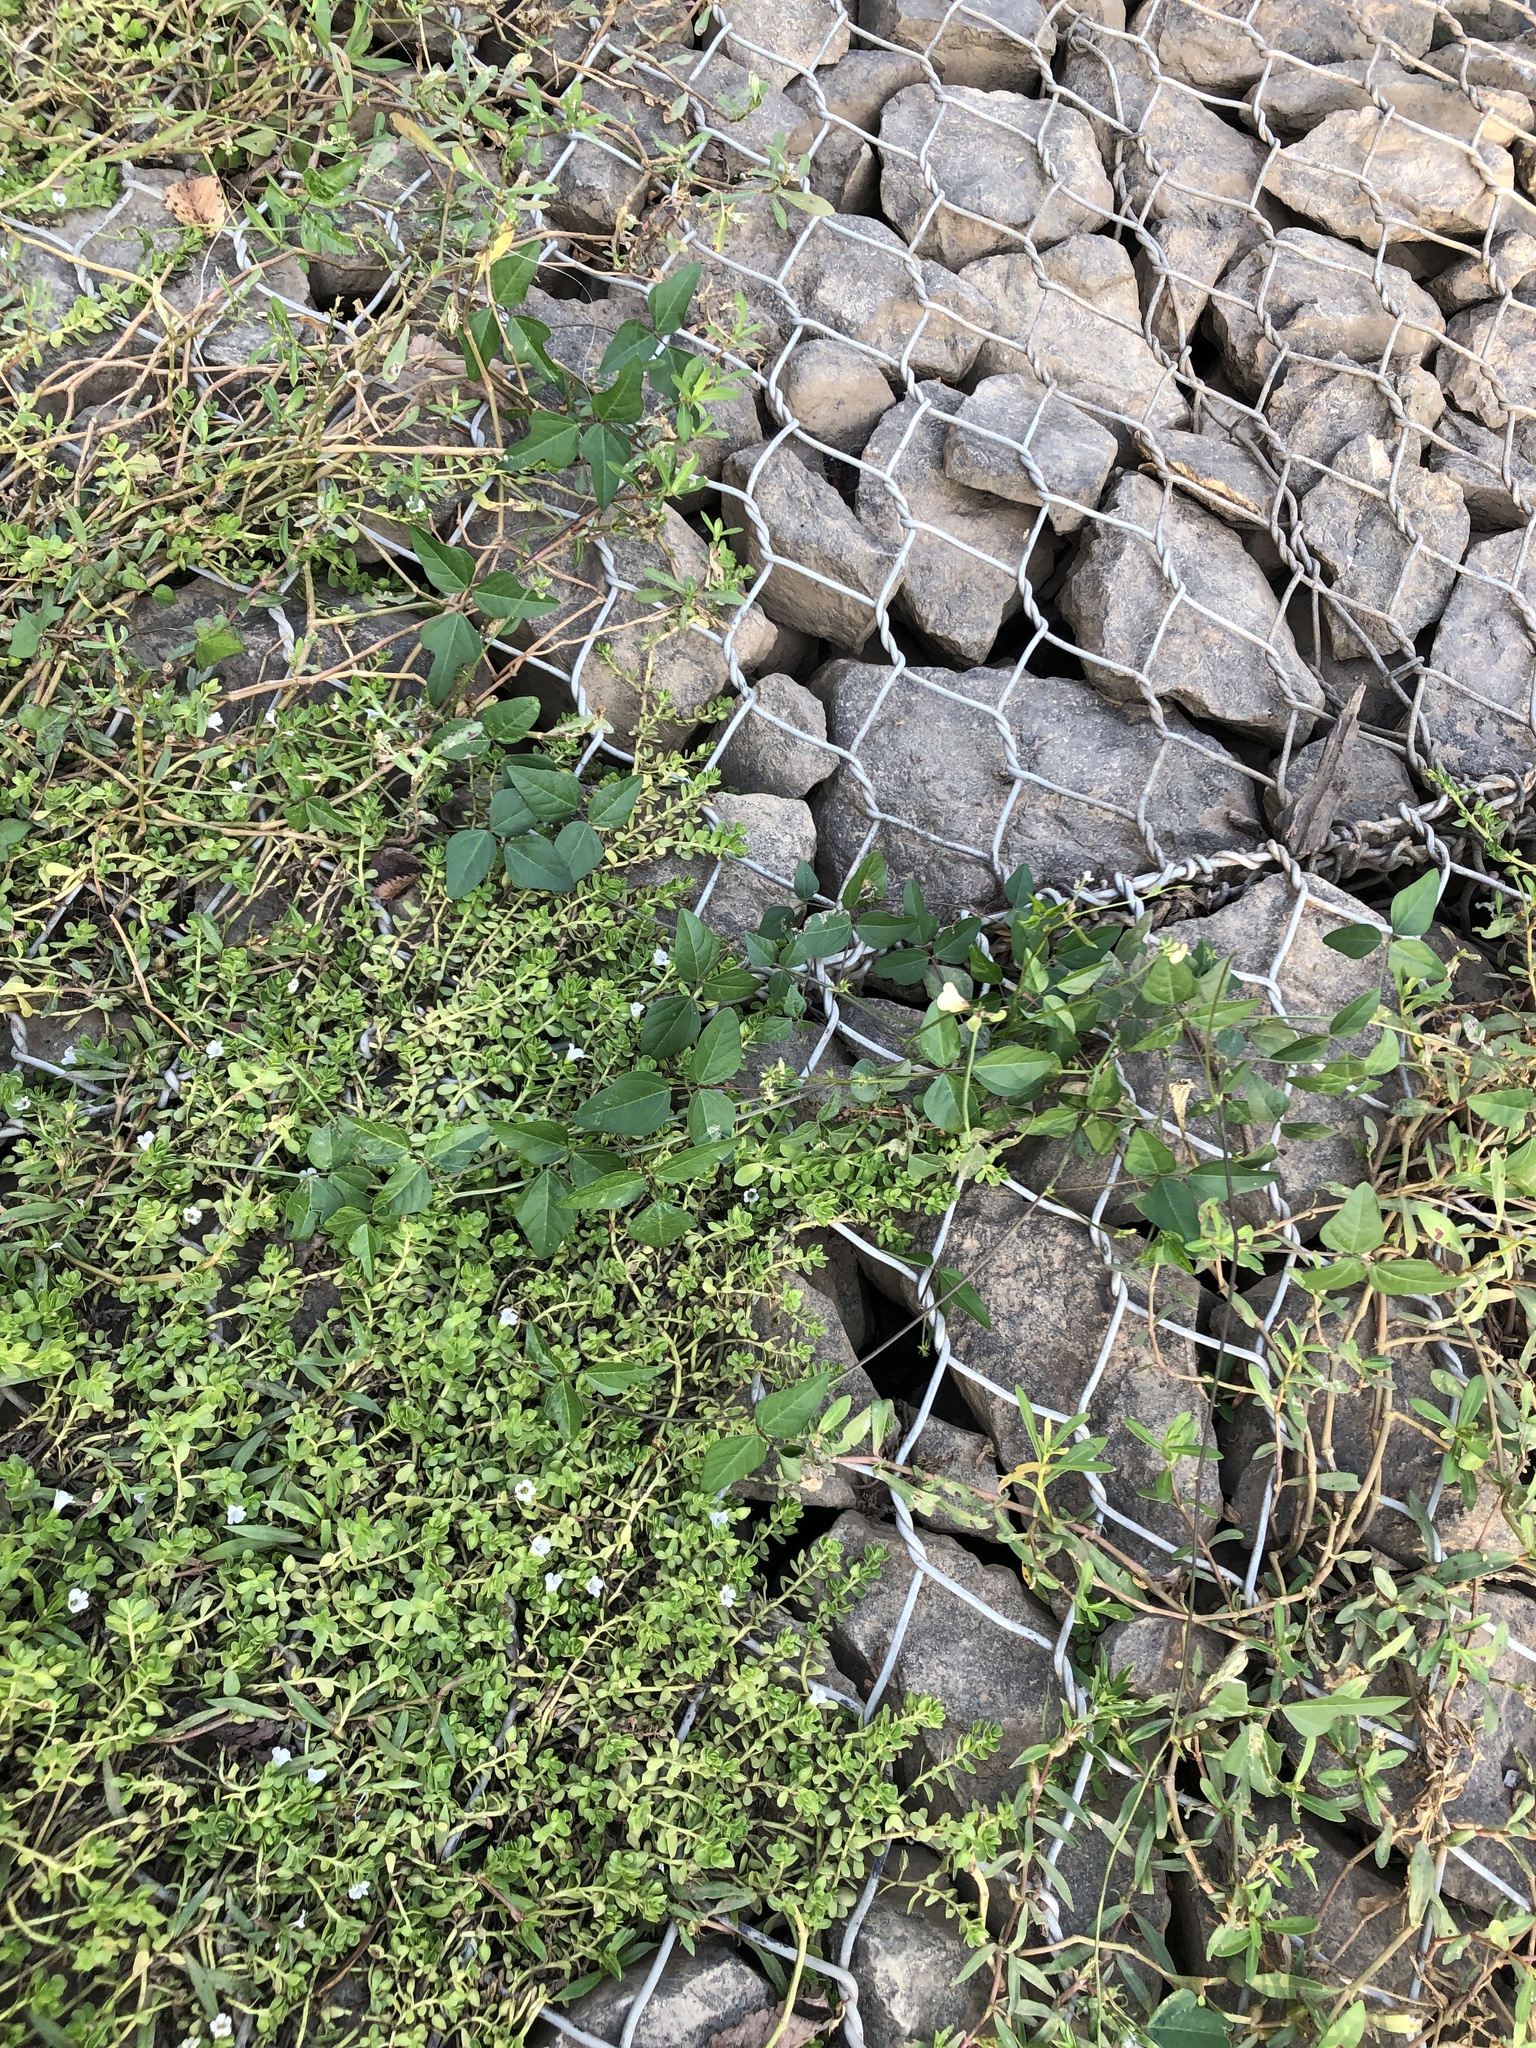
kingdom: Plantae
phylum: Tracheophyta
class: Magnoliopsida
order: Fabales
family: Fabaceae
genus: Strophostyles
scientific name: Strophostyles helvola
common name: Trailing wild bean
